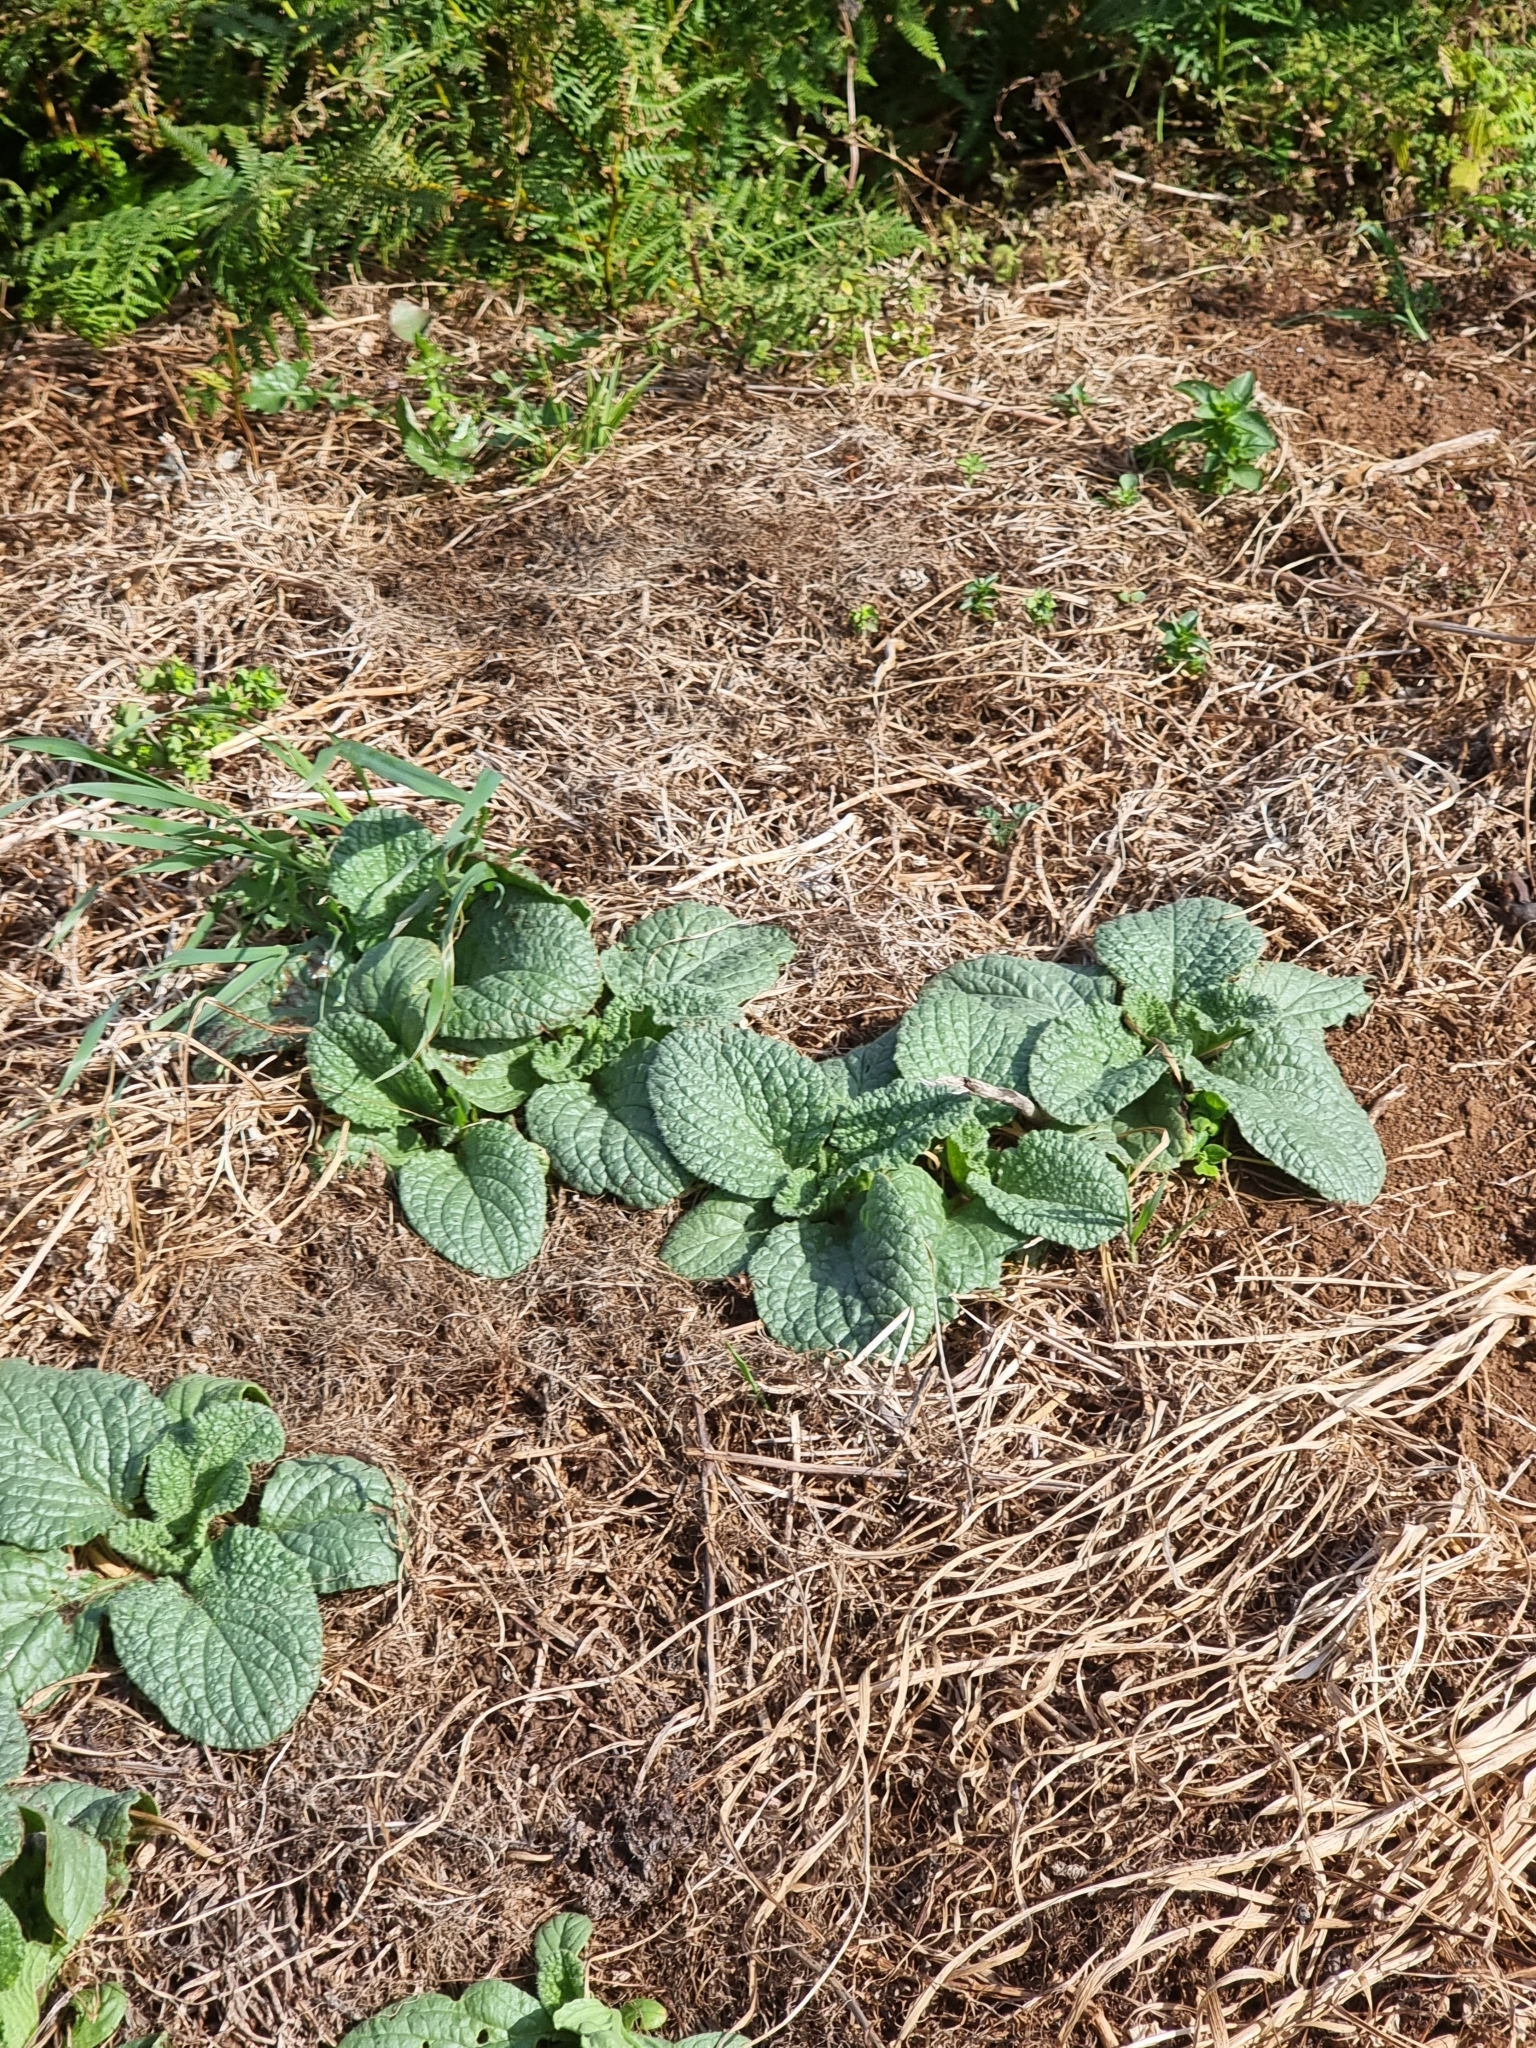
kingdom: Plantae
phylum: Tracheophyta
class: Magnoliopsida
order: Boraginales
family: Boraginaceae
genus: Borago
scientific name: Borago officinalis
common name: Borage
